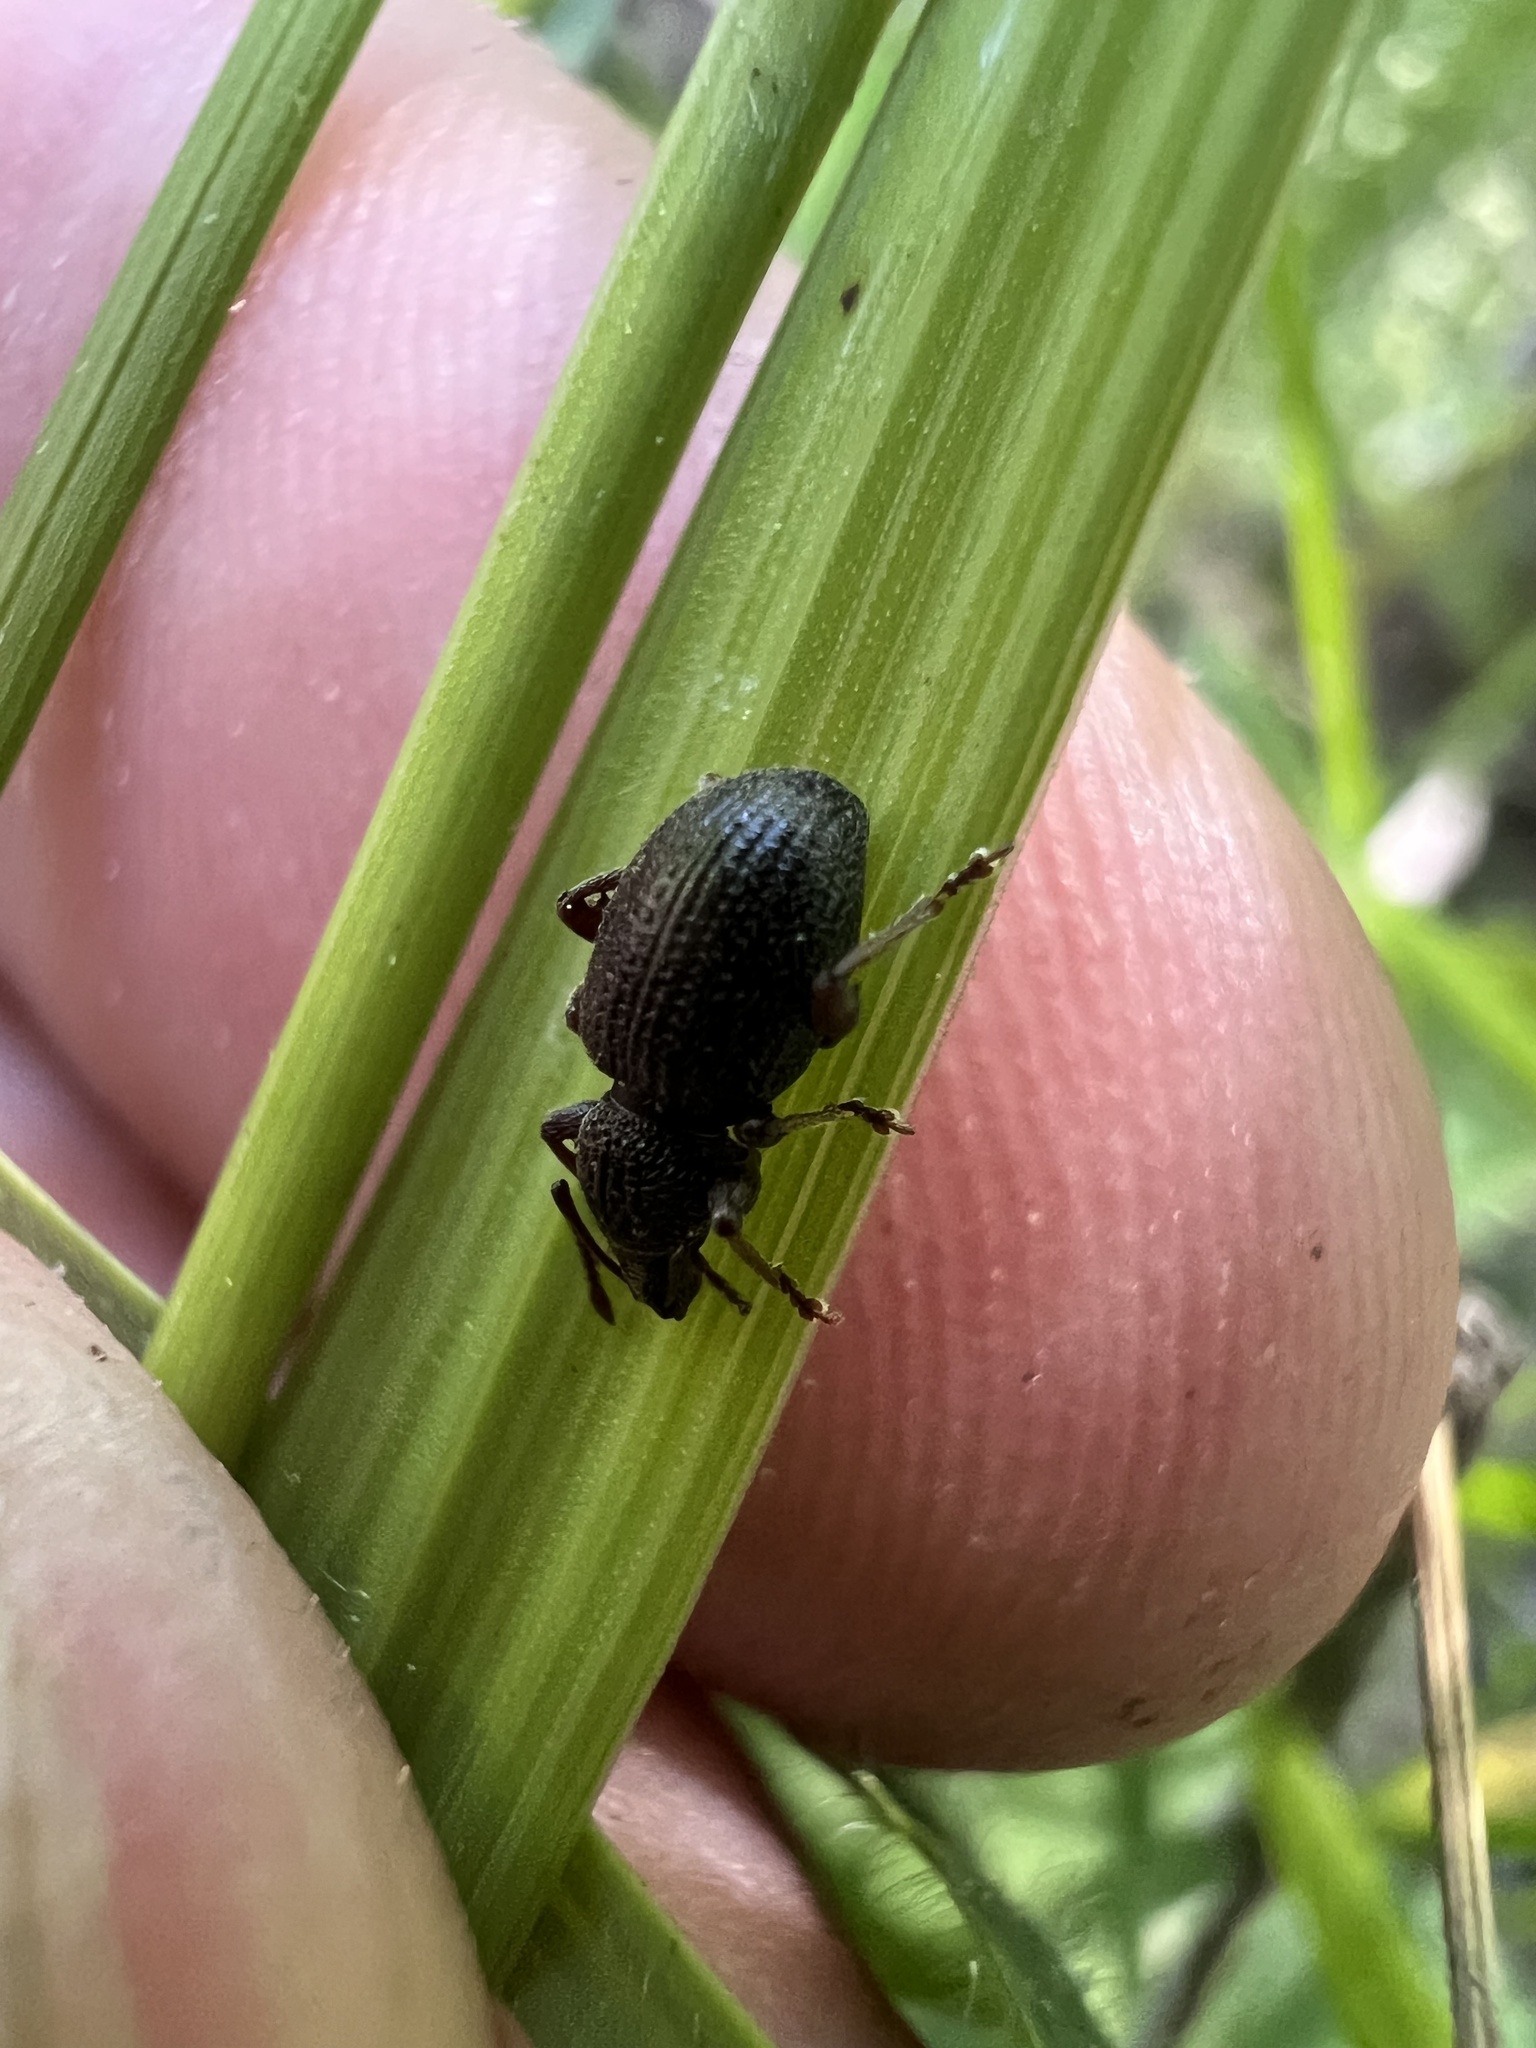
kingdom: Animalia
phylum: Arthropoda
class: Insecta
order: Coleoptera
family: Curculionidae
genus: Otiorhynchus
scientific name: Otiorhynchus ovatus
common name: Strawberry root weevil
